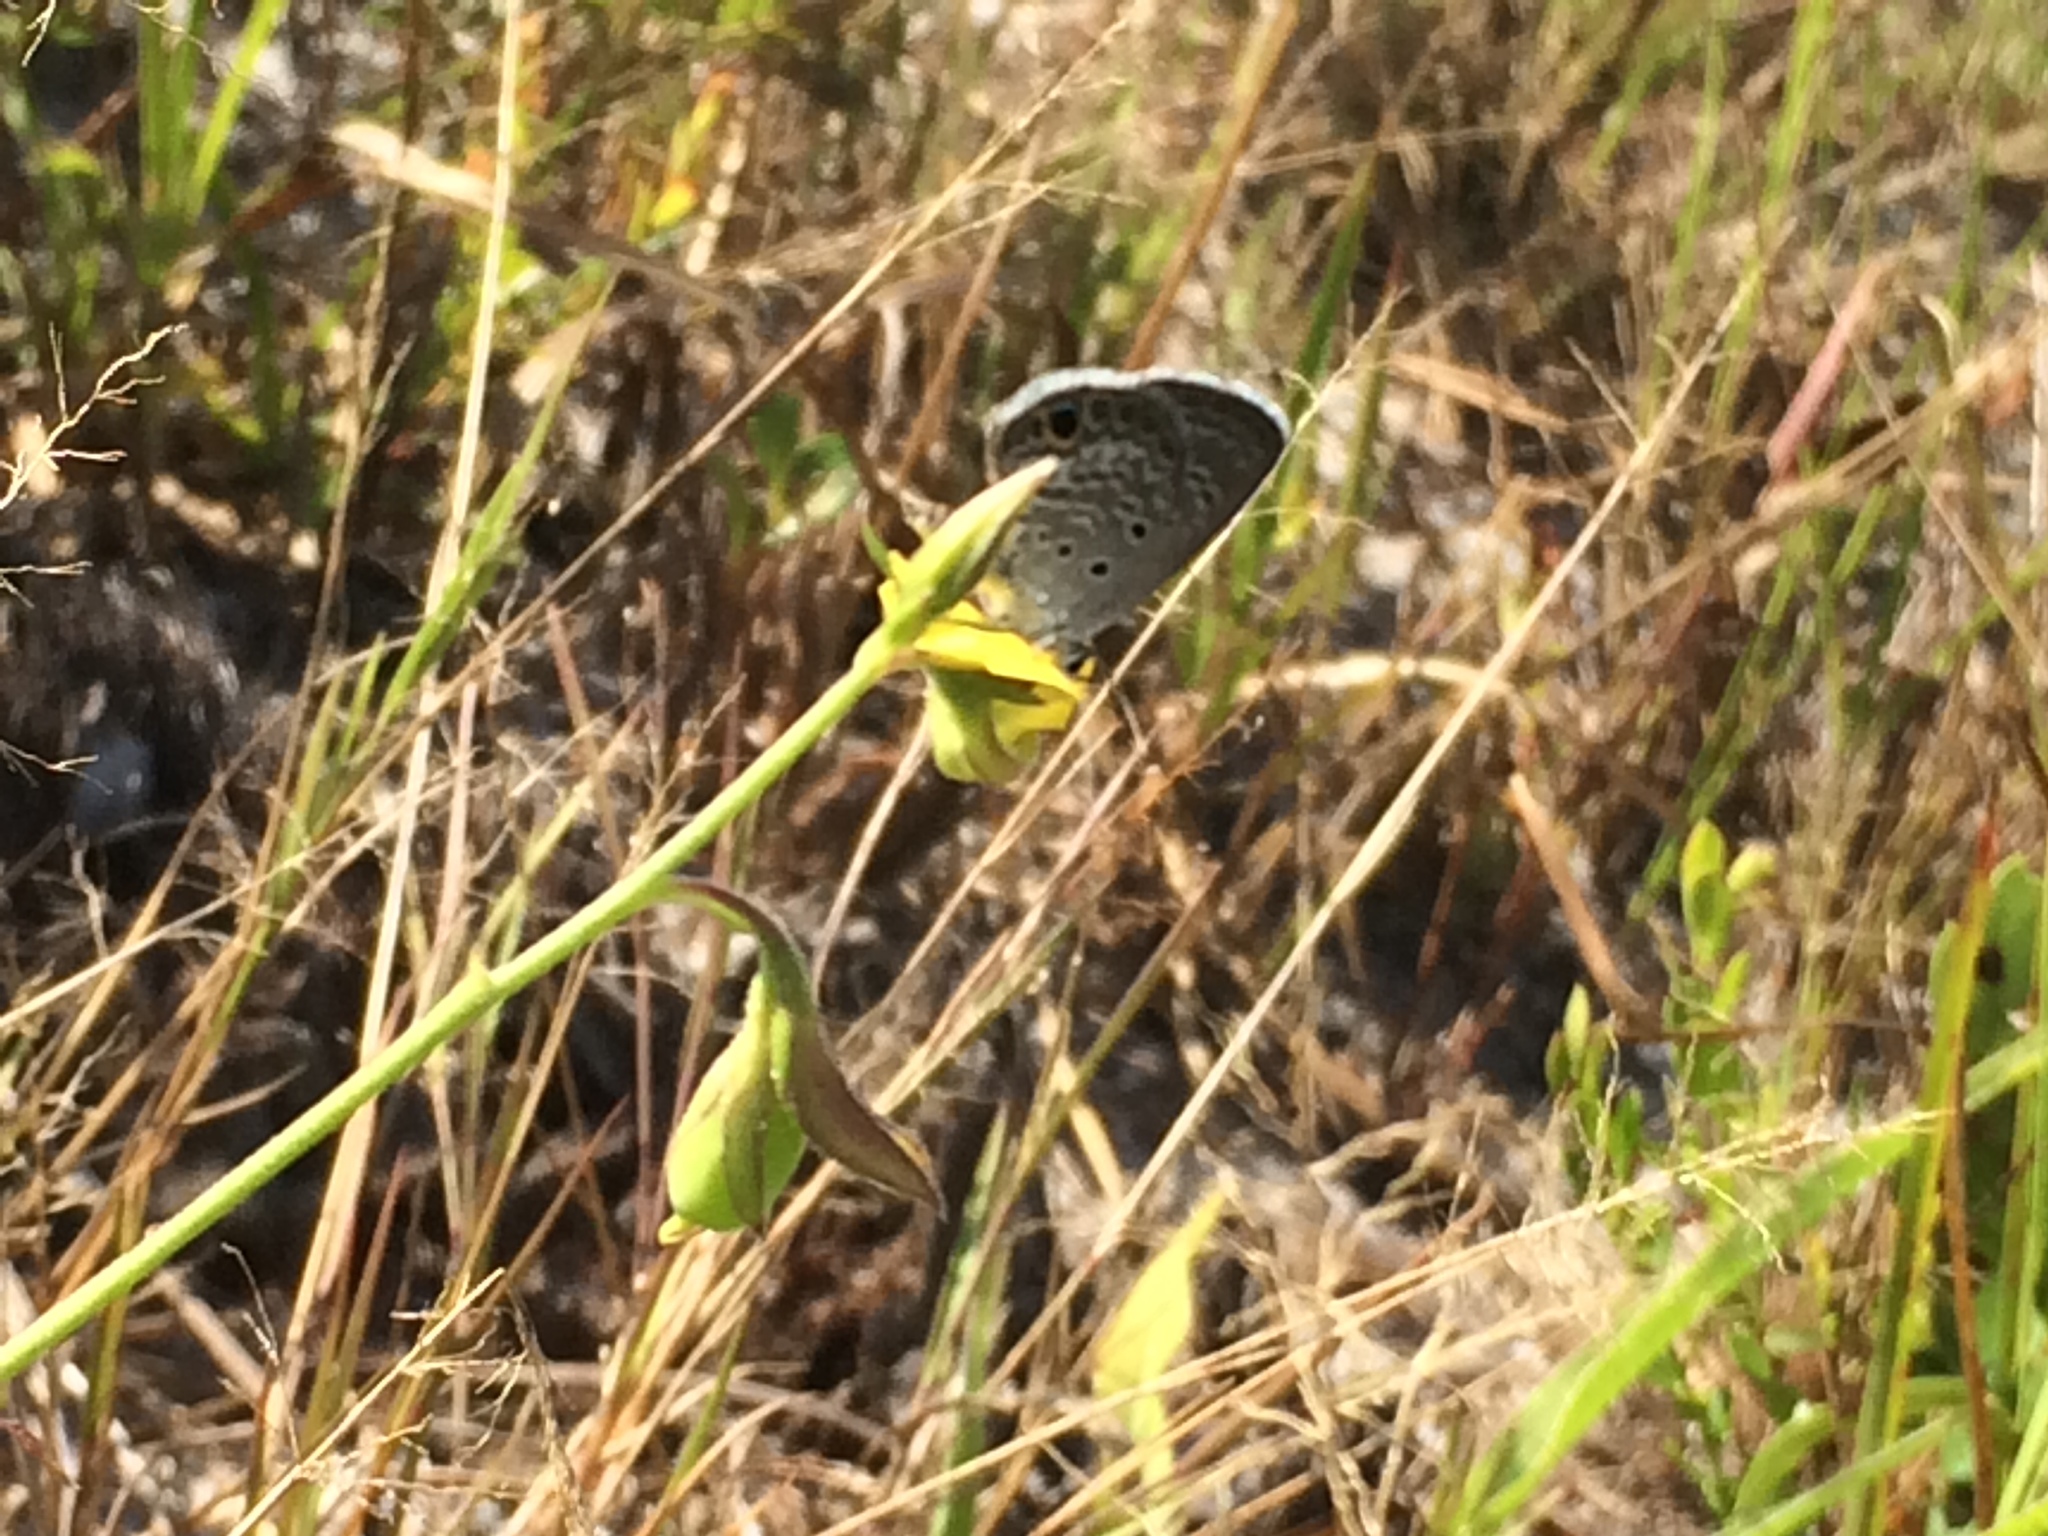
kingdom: Animalia
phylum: Arthropoda
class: Insecta
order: Lepidoptera
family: Lycaenidae
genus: Hemiargus
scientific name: Hemiargus ceraunus
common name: Ceraunus blue
